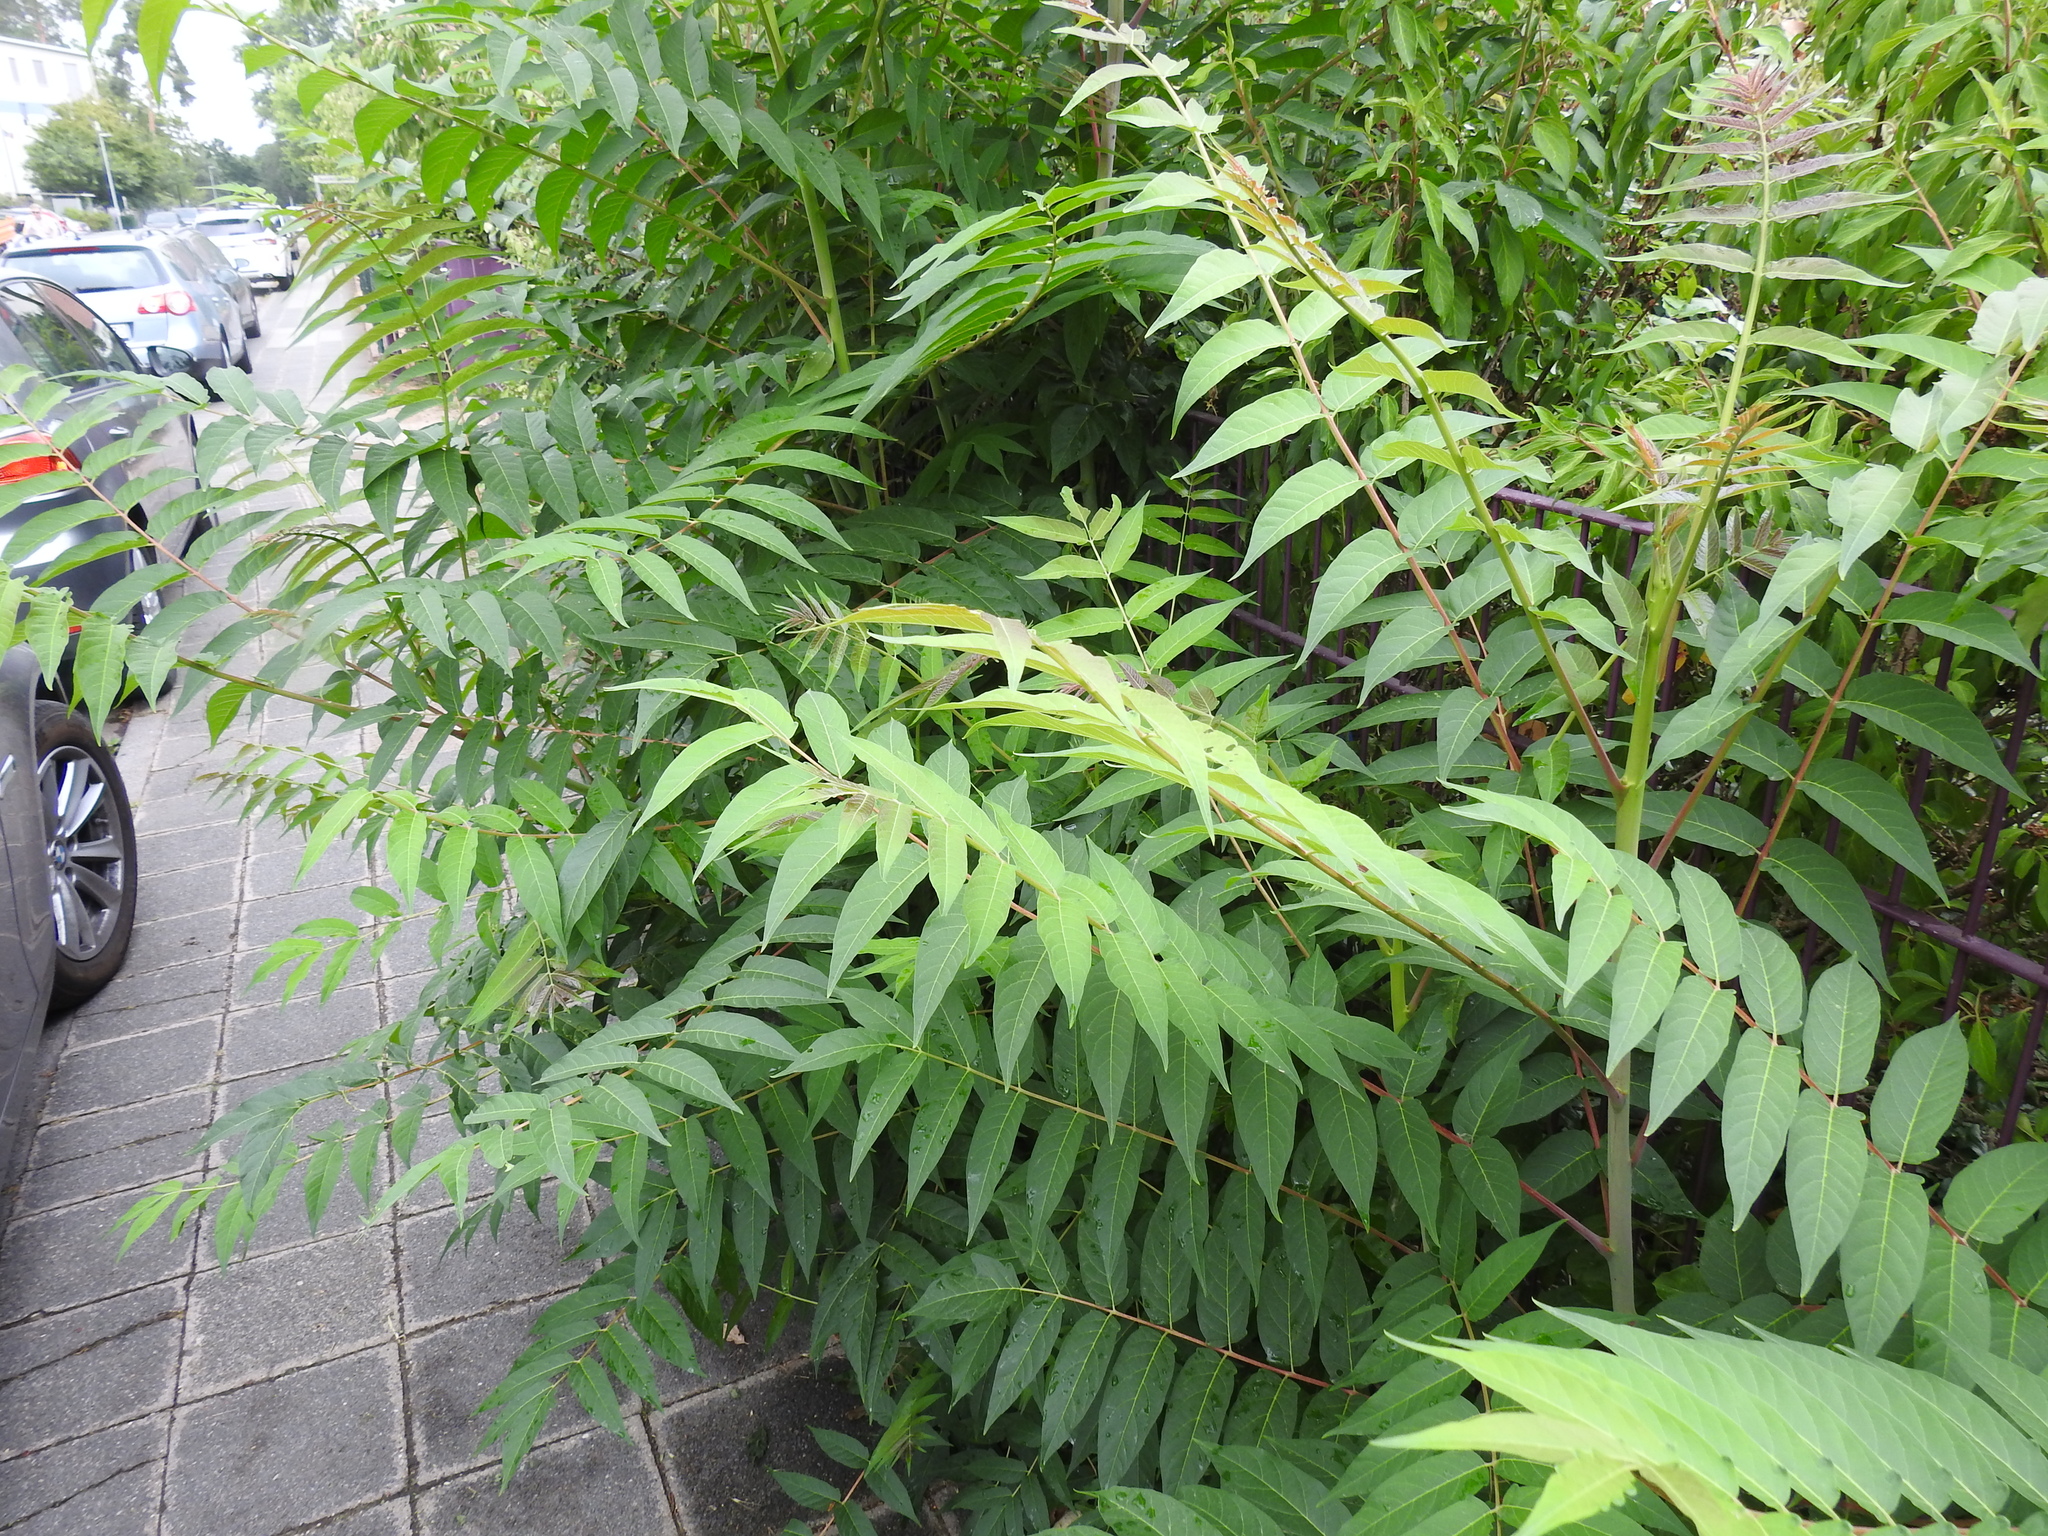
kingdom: Plantae
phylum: Tracheophyta
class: Magnoliopsida
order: Sapindales
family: Simaroubaceae
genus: Ailanthus
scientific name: Ailanthus altissima
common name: Tree-of-heaven
